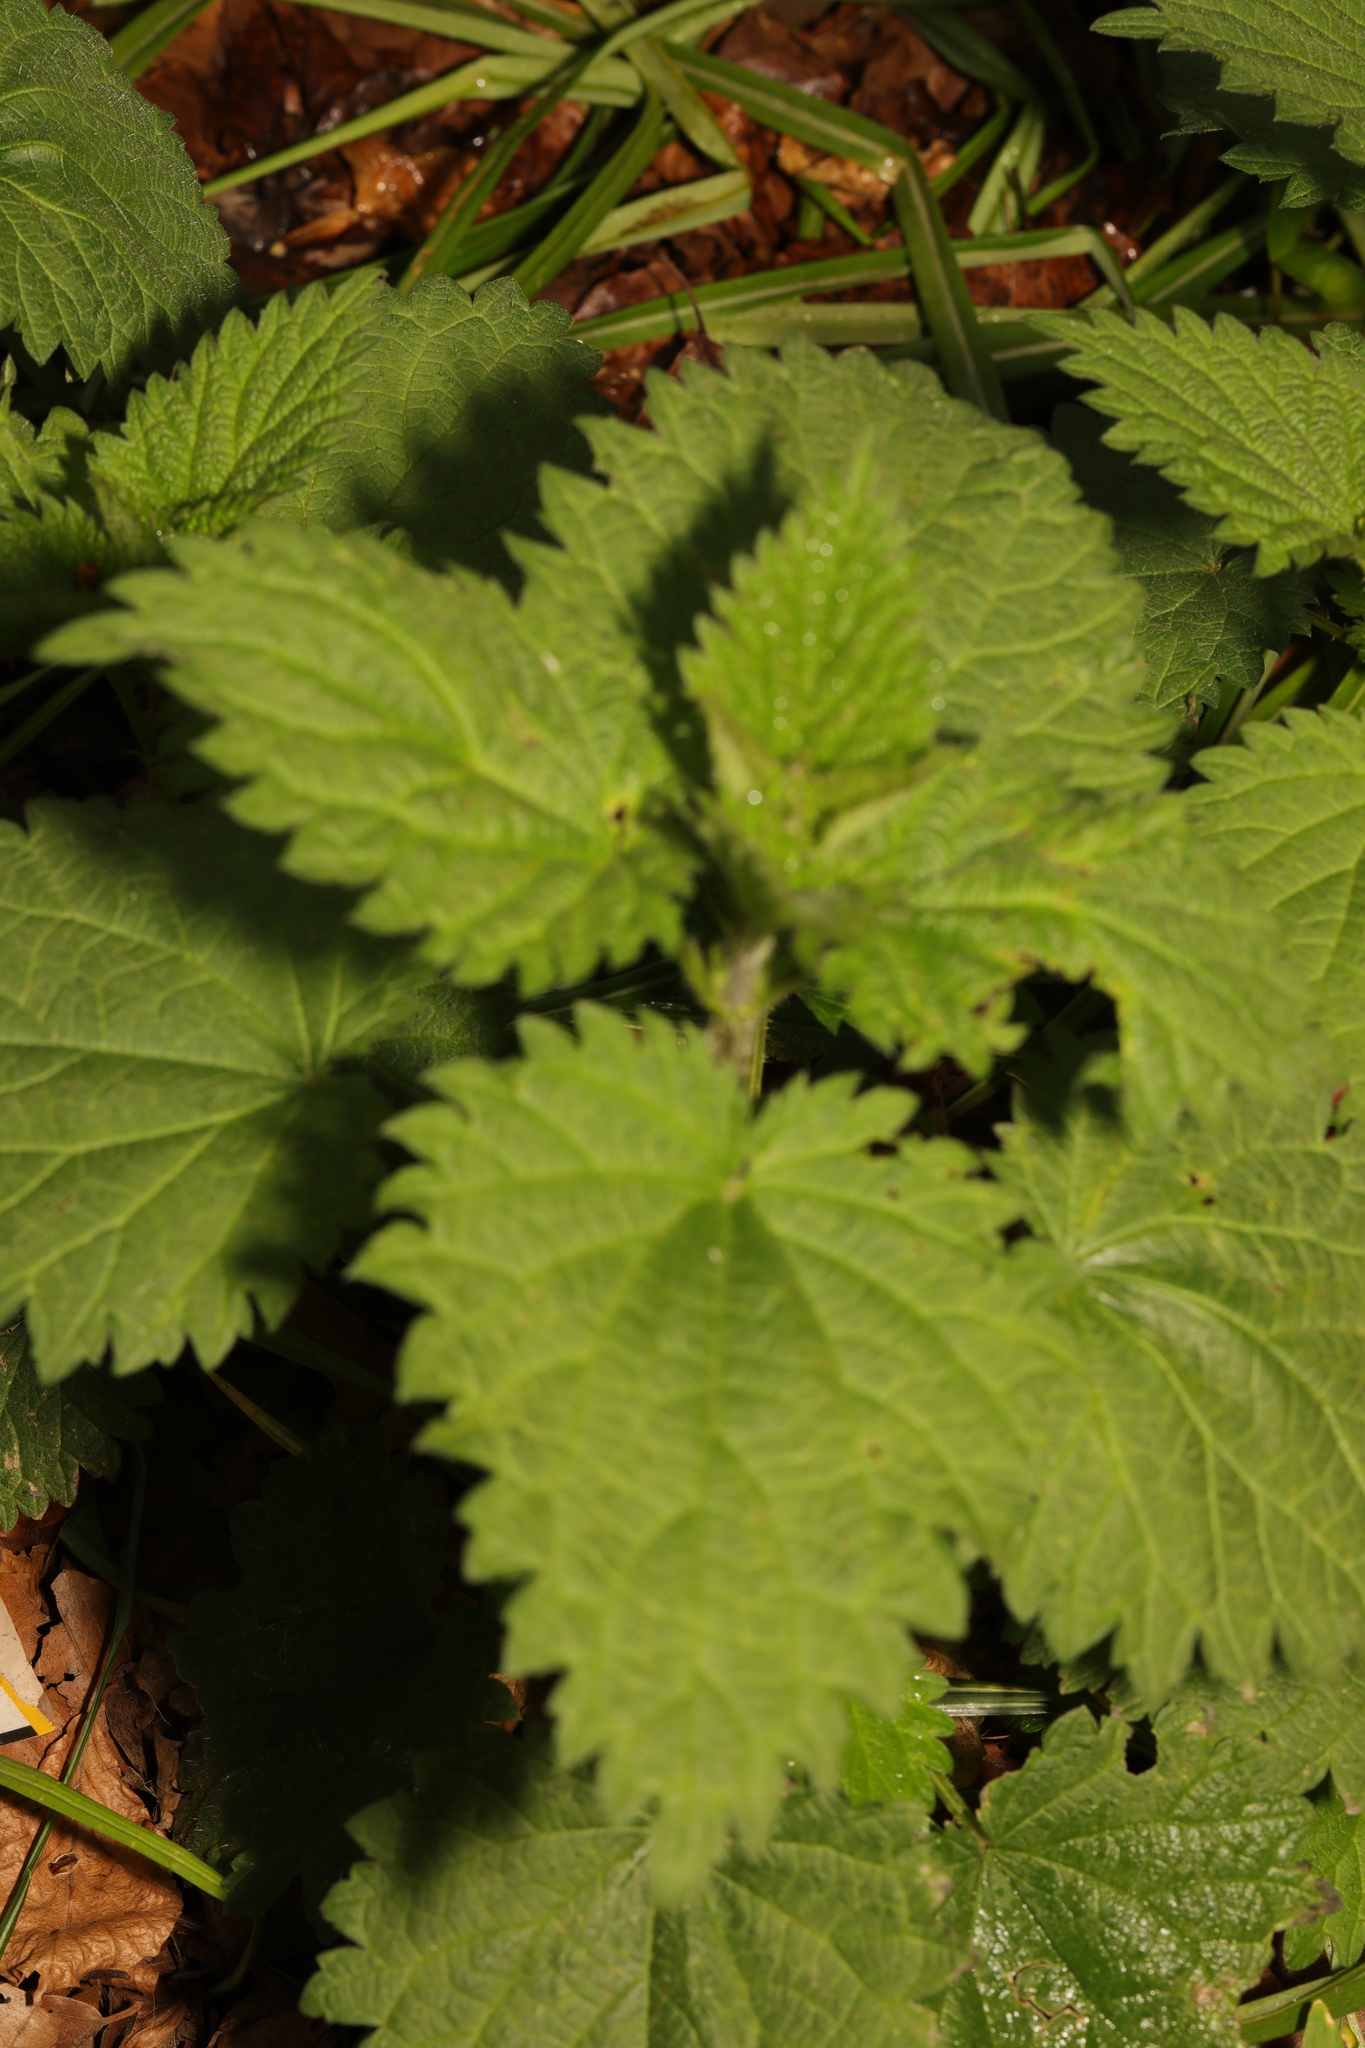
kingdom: Plantae
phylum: Tracheophyta
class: Magnoliopsida
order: Rosales
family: Urticaceae
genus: Urtica
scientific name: Urtica dioica
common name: Common nettle
